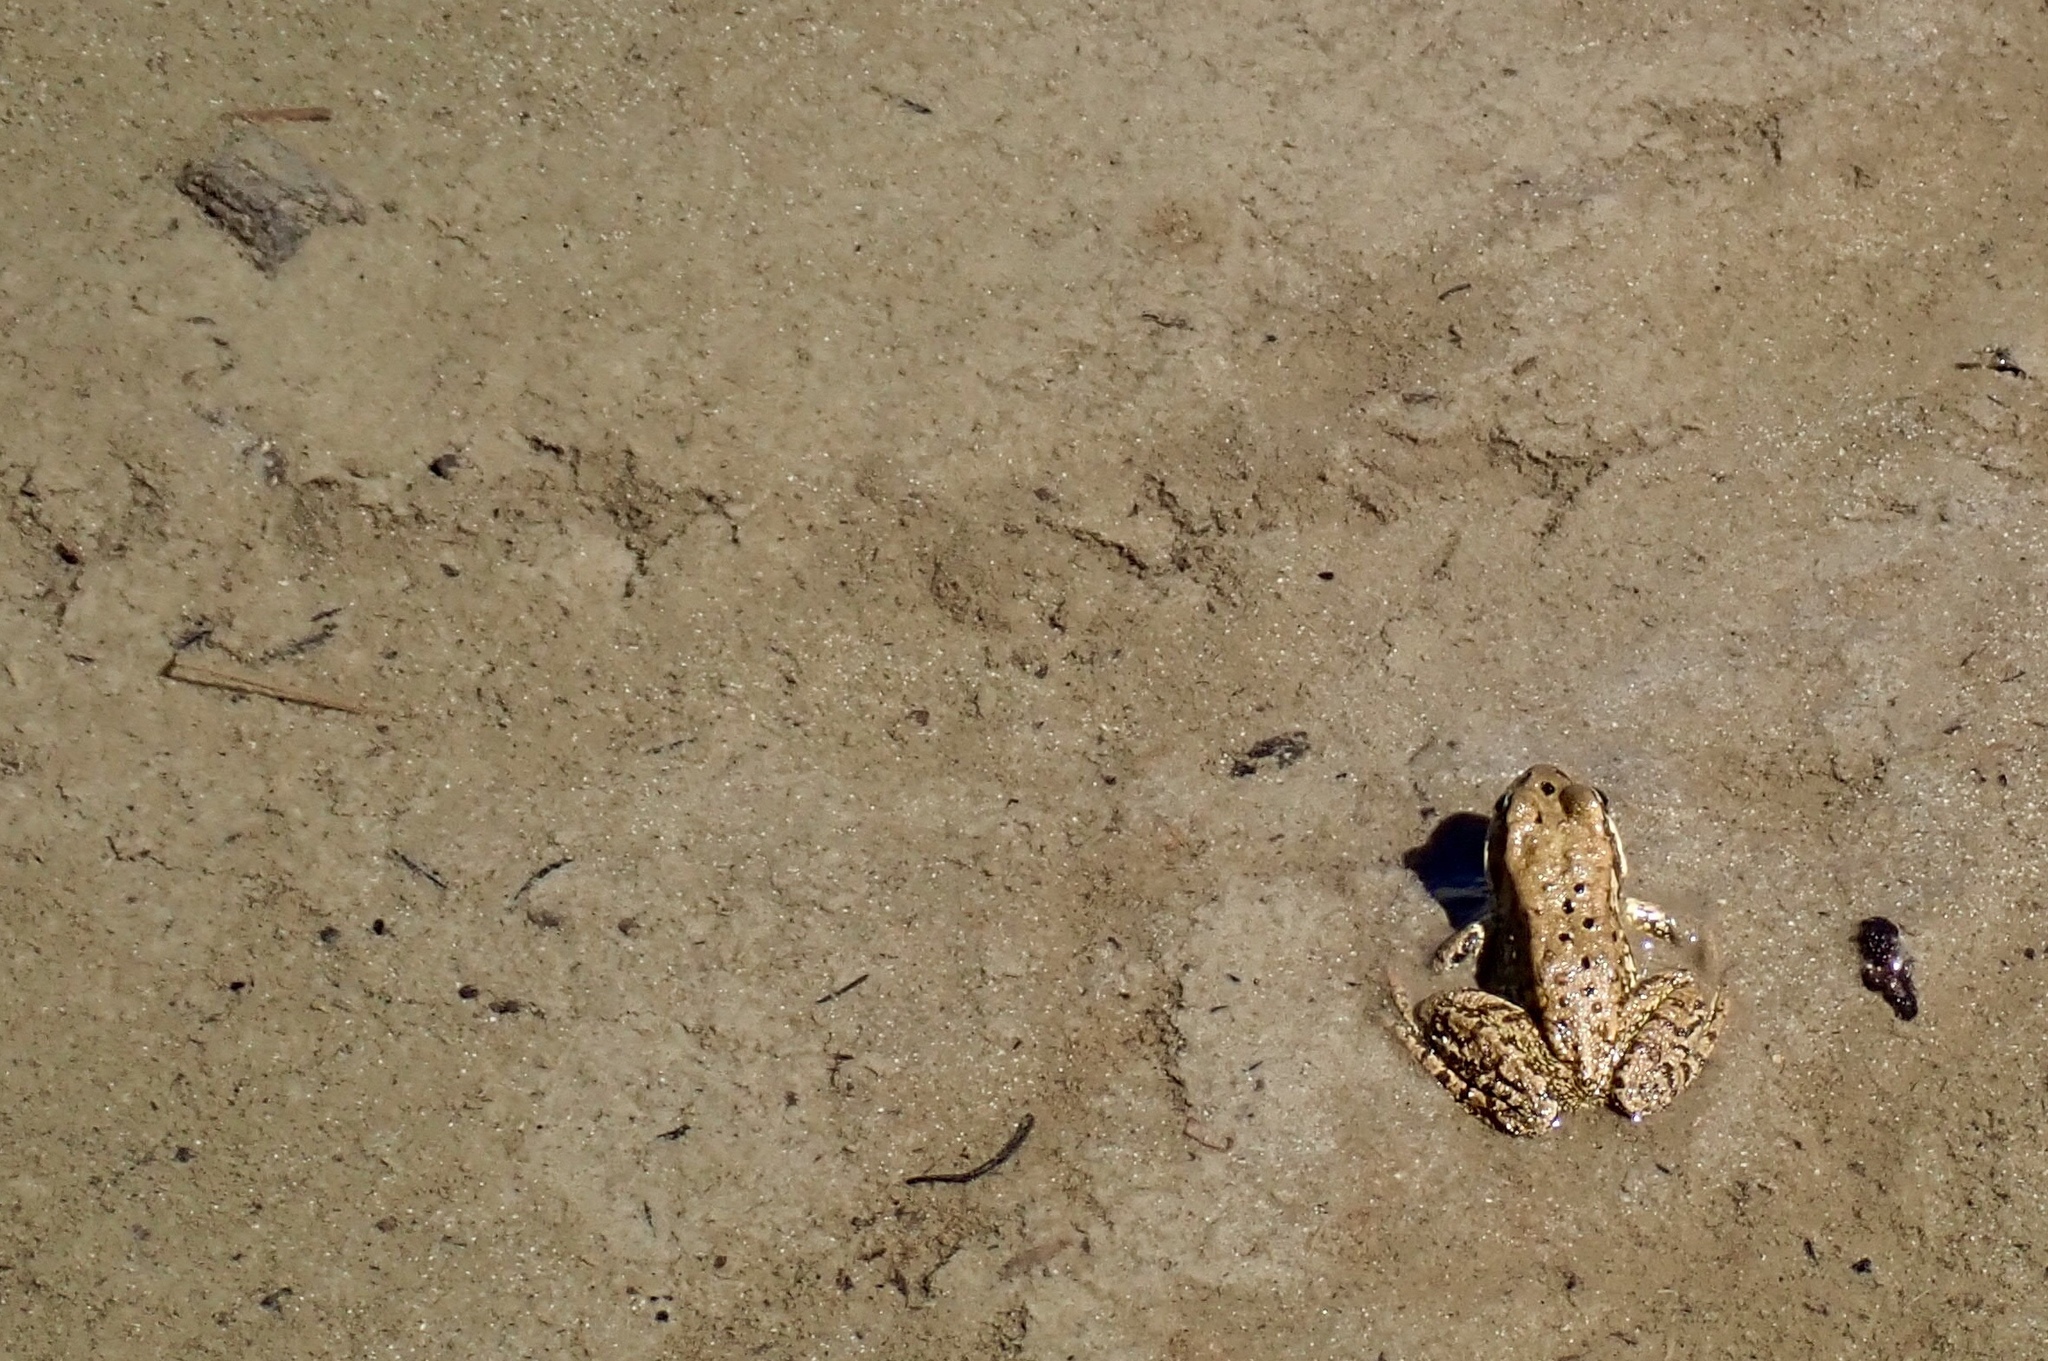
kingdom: Animalia
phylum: Chordata
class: Amphibia
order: Anura
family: Ranidae
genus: Rana
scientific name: Rana cascadae
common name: Cascades frog
